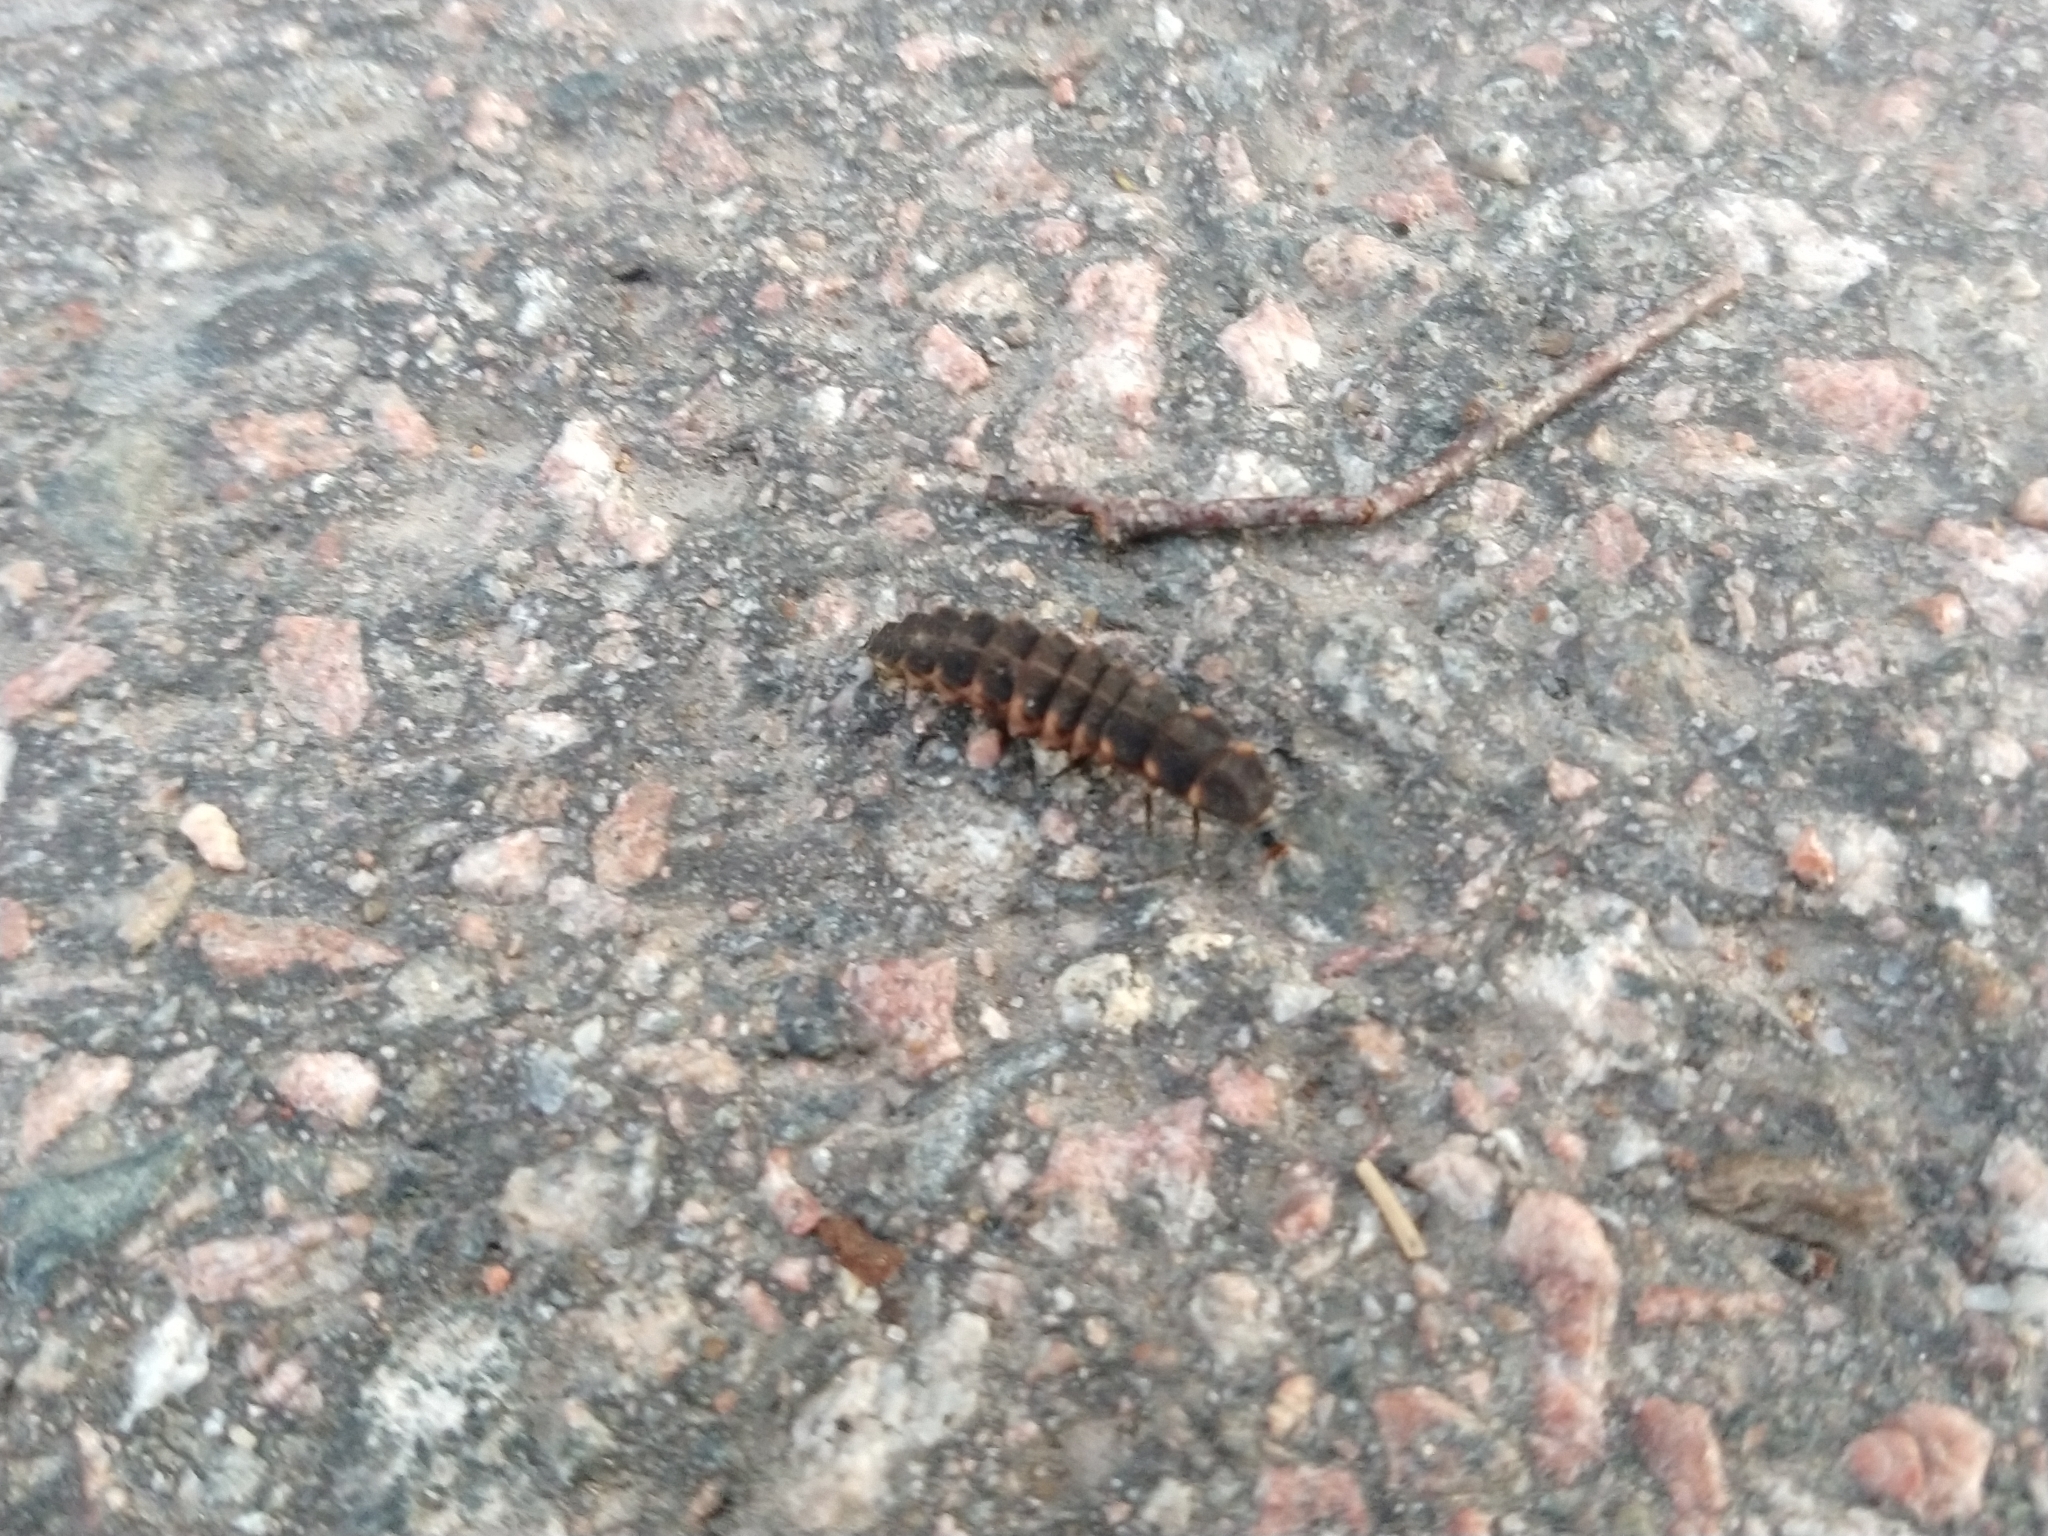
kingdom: Animalia
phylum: Arthropoda
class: Insecta
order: Coleoptera
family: Lampyridae
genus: Lampyris
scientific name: Lampyris noctiluca
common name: Glow-worm
